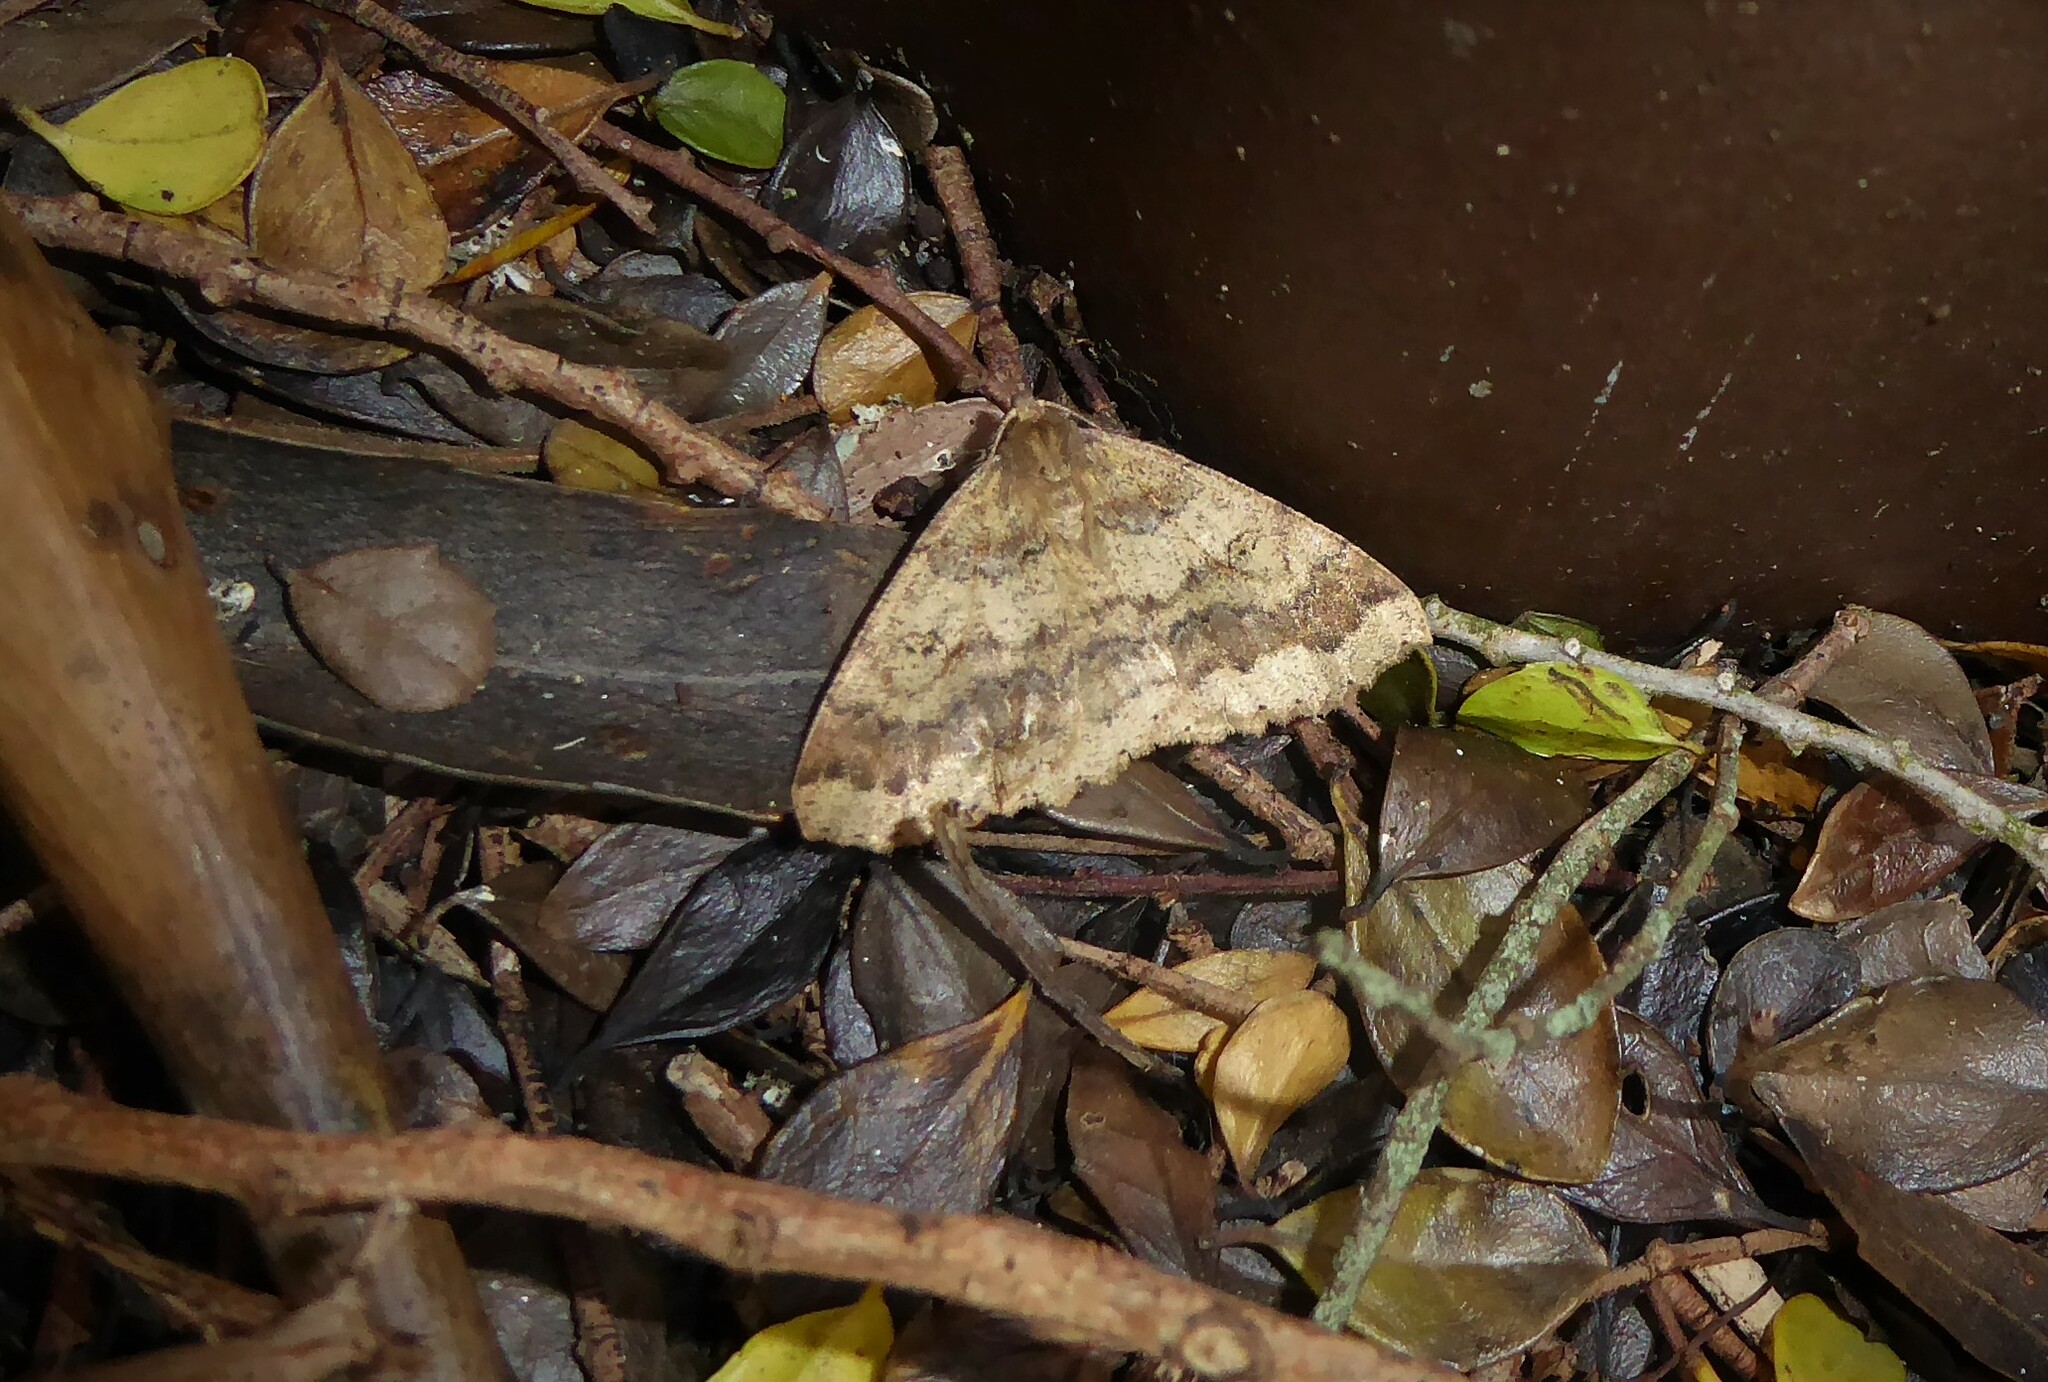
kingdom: Animalia
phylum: Arthropoda
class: Insecta
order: Lepidoptera
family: Geometridae
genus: Cleora
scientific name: Cleora scriptaria
